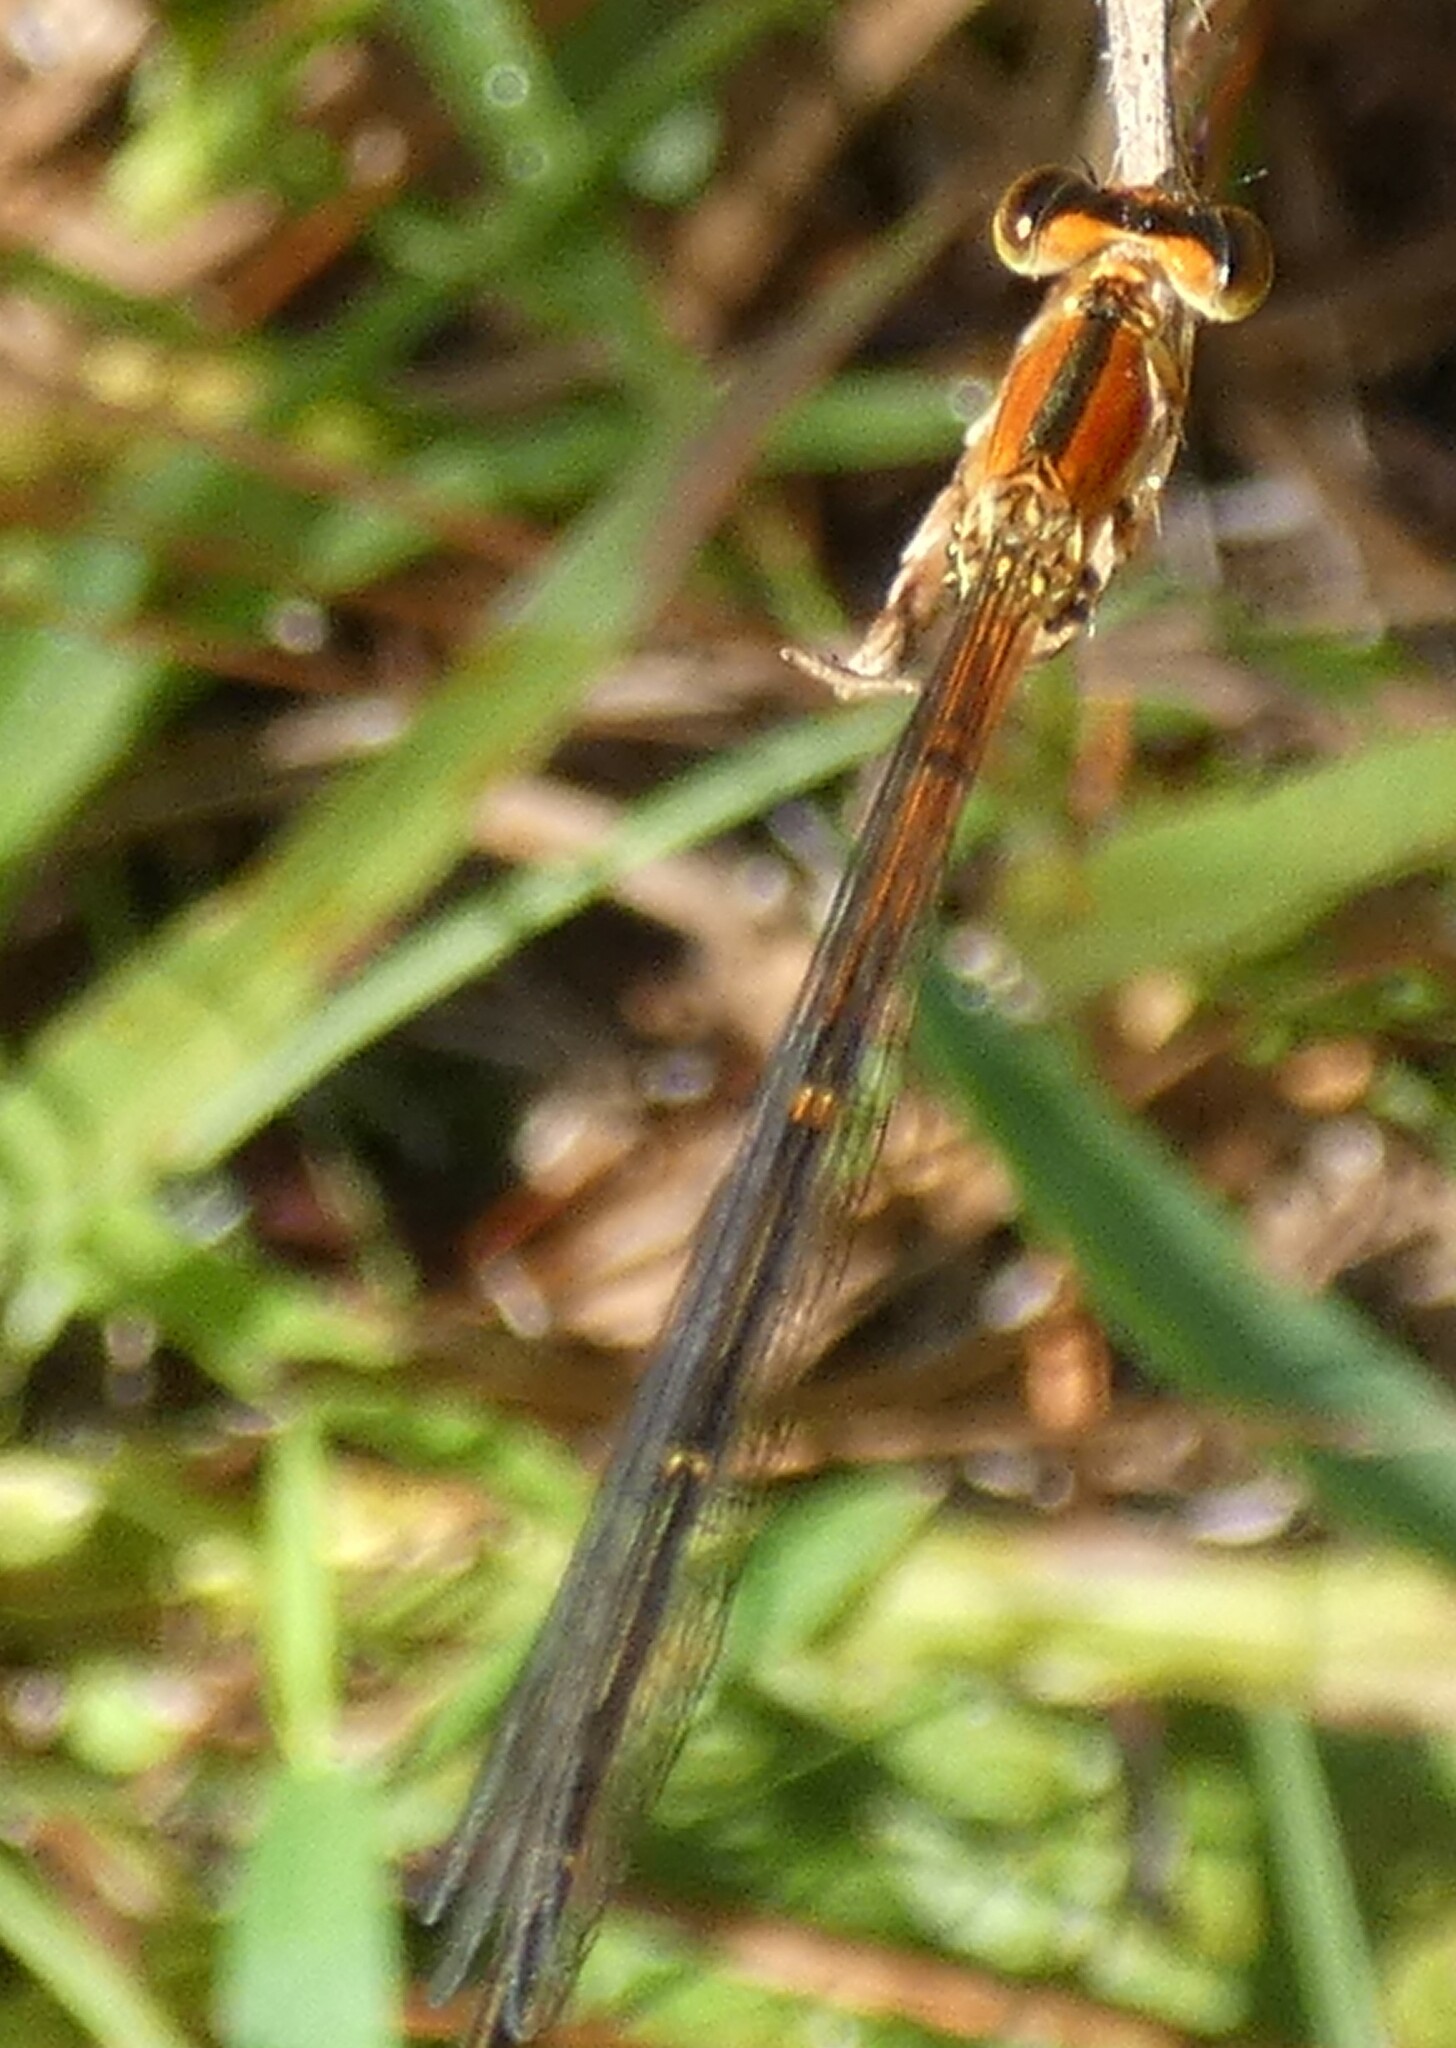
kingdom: Animalia
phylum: Arthropoda
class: Insecta
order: Odonata
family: Coenagrionidae
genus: Ischnura
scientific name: Ischnura prognata
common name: Furtive forktail
